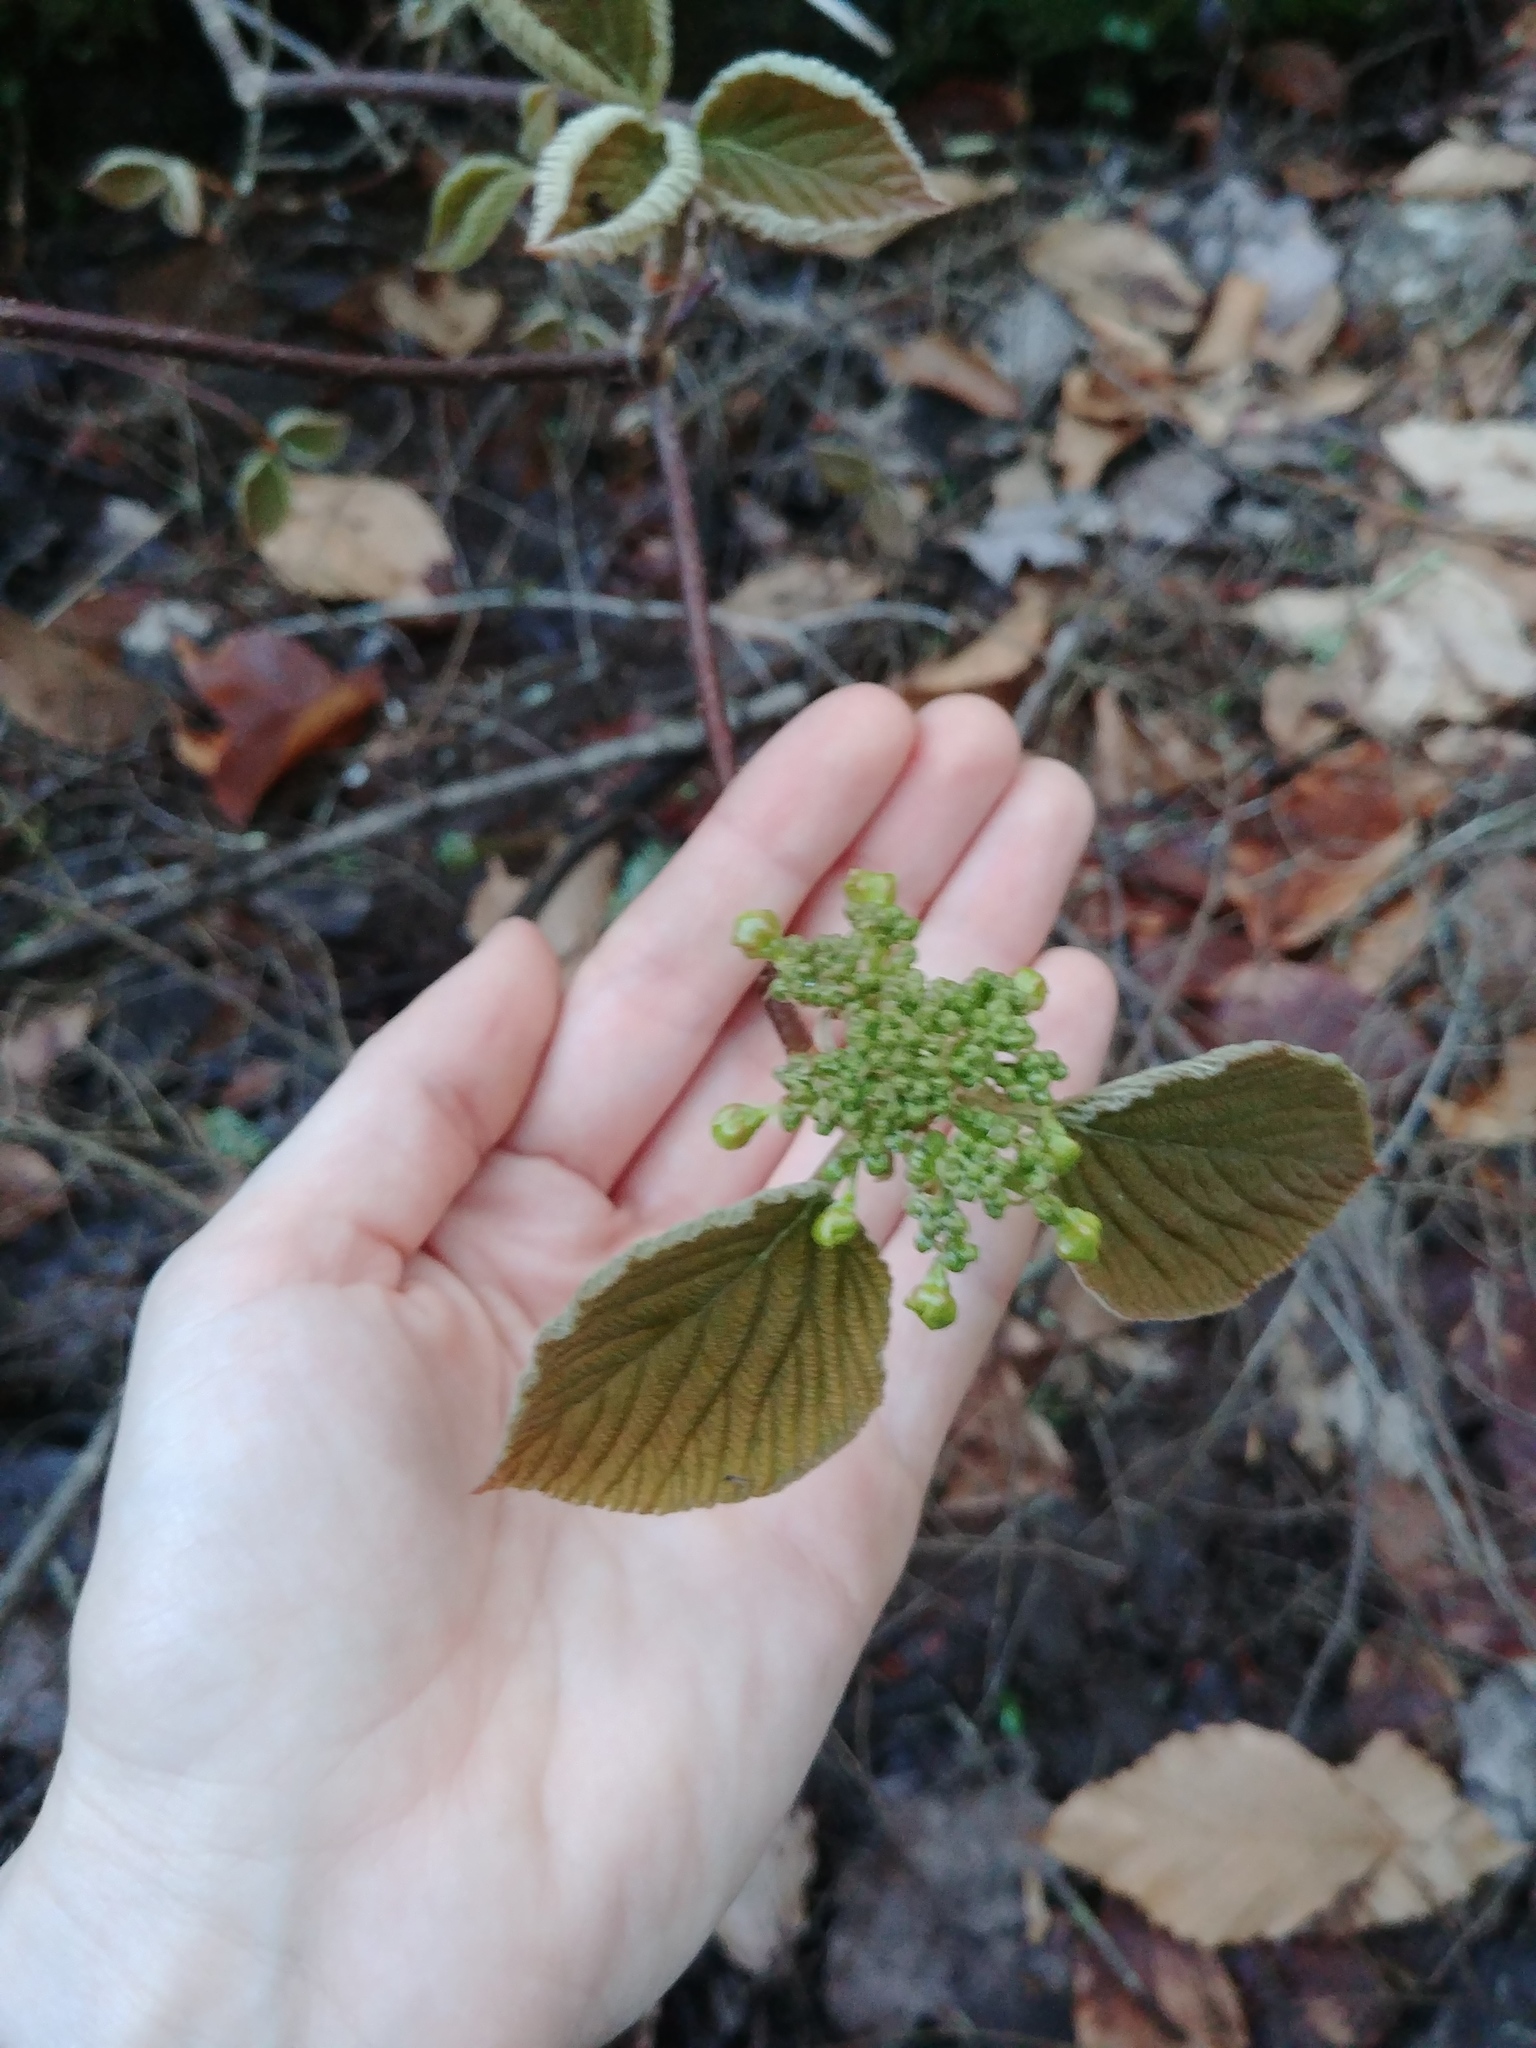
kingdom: Plantae
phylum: Tracheophyta
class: Magnoliopsida
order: Dipsacales
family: Viburnaceae
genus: Viburnum
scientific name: Viburnum lantanoides
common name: Hobblebush
